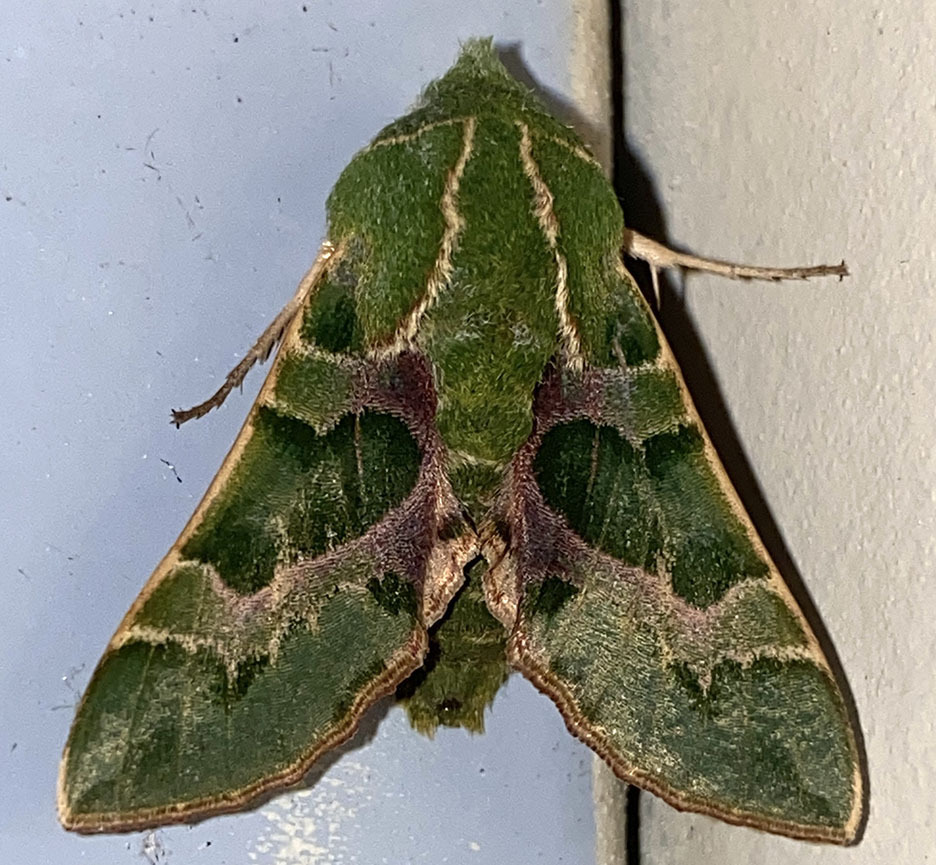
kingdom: Animalia
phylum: Arthropoda
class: Insecta
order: Lepidoptera
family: Sphingidae
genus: Proserpinus
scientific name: Proserpinus lucidus
